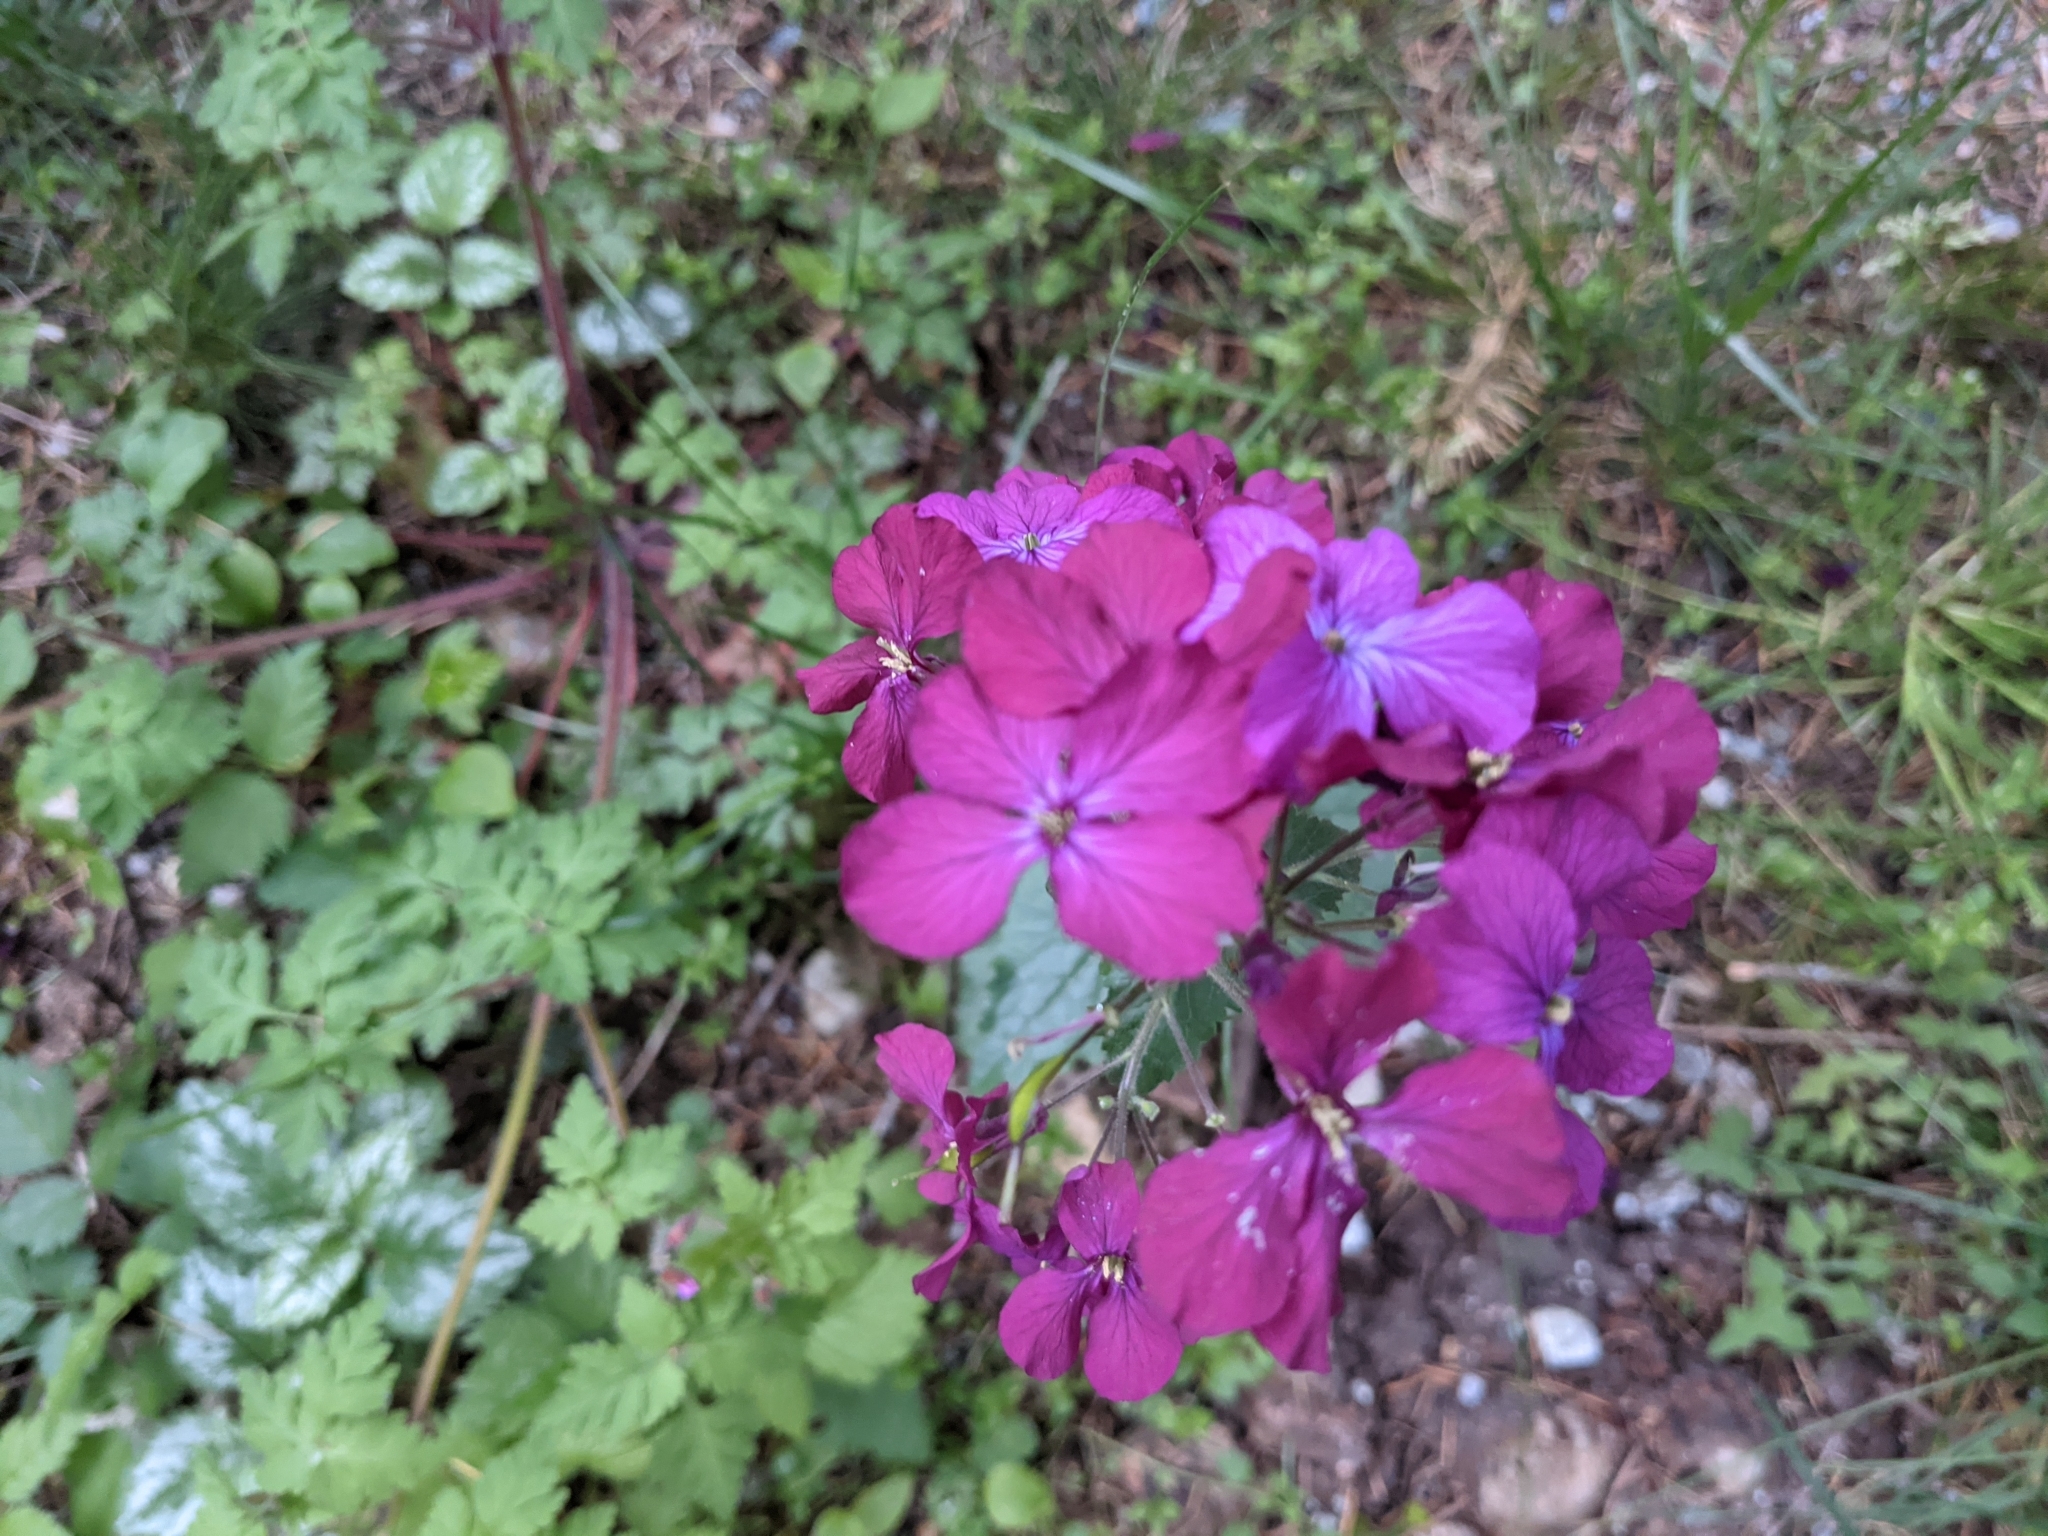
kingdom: Plantae
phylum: Tracheophyta
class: Magnoliopsida
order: Brassicales
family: Brassicaceae
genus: Lunaria
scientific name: Lunaria annua
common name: Honesty
